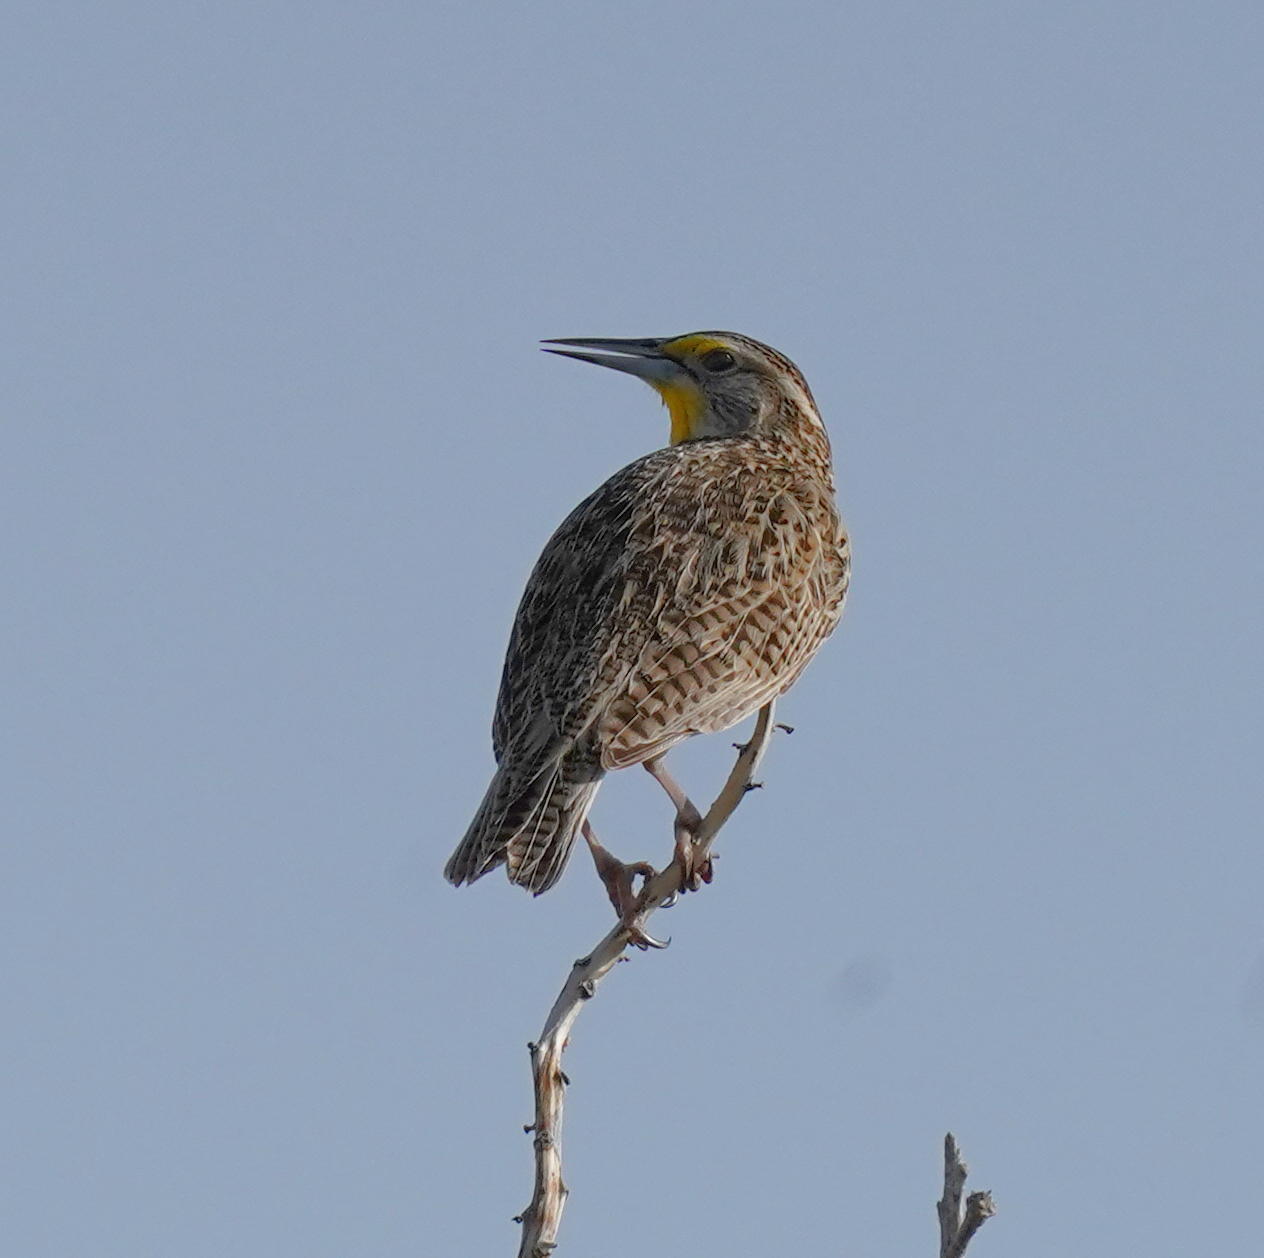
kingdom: Animalia
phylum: Chordata
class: Aves
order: Passeriformes
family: Icteridae
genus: Sturnella
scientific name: Sturnella neglecta
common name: Western meadowlark
